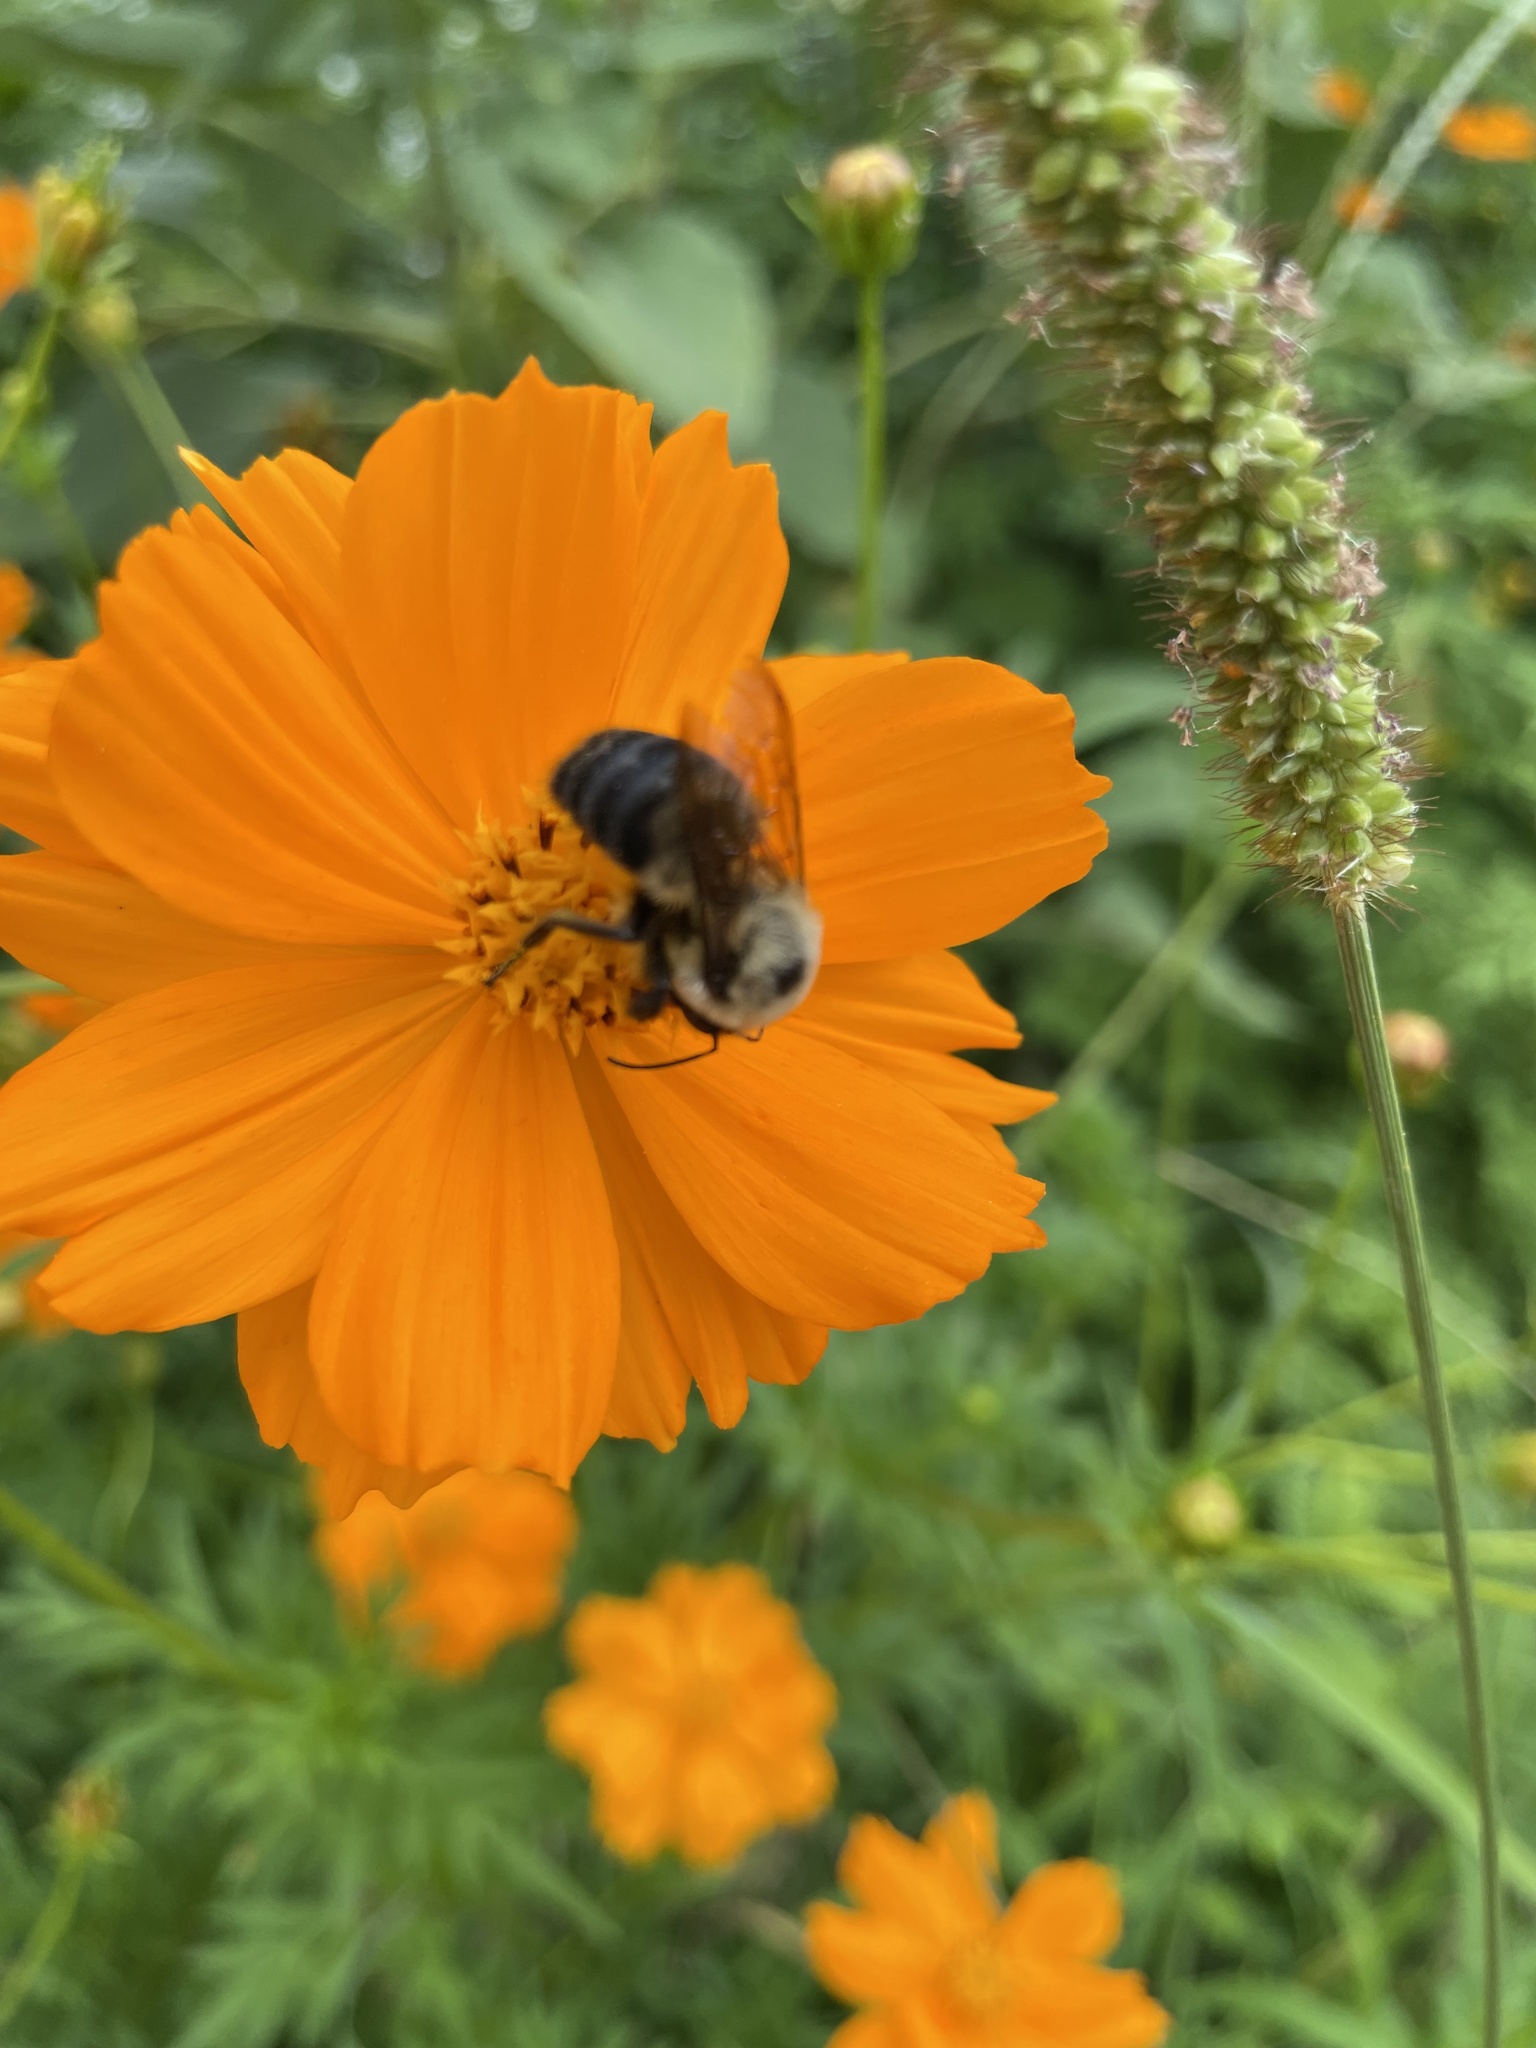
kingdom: Animalia
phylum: Arthropoda
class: Insecta
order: Hymenoptera
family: Apidae
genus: Bombus
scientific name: Bombus griseocollis
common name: Brown-belted bumble bee
